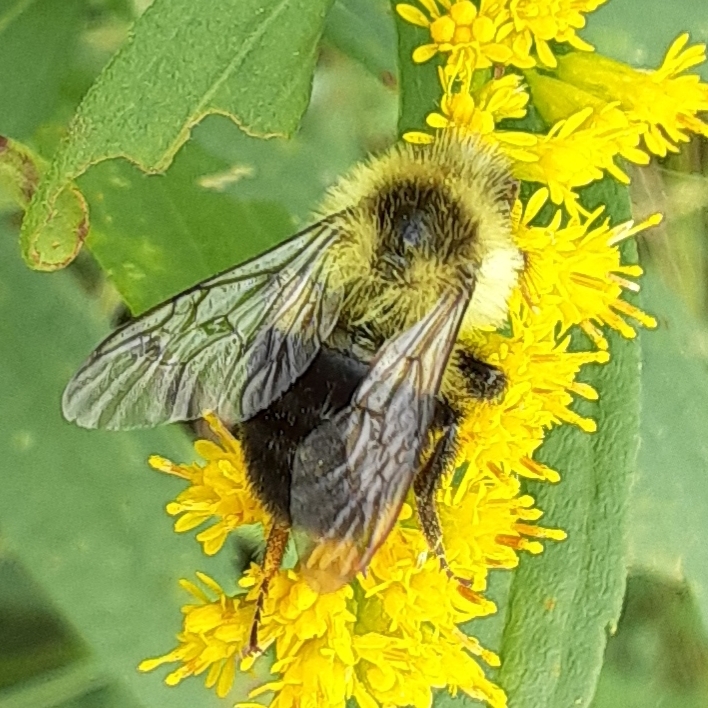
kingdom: Animalia
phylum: Arthropoda
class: Insecta
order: Hymenoptera
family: Apidae
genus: Bombus
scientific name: Bombus impatiens
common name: Common eastern bumble bee
